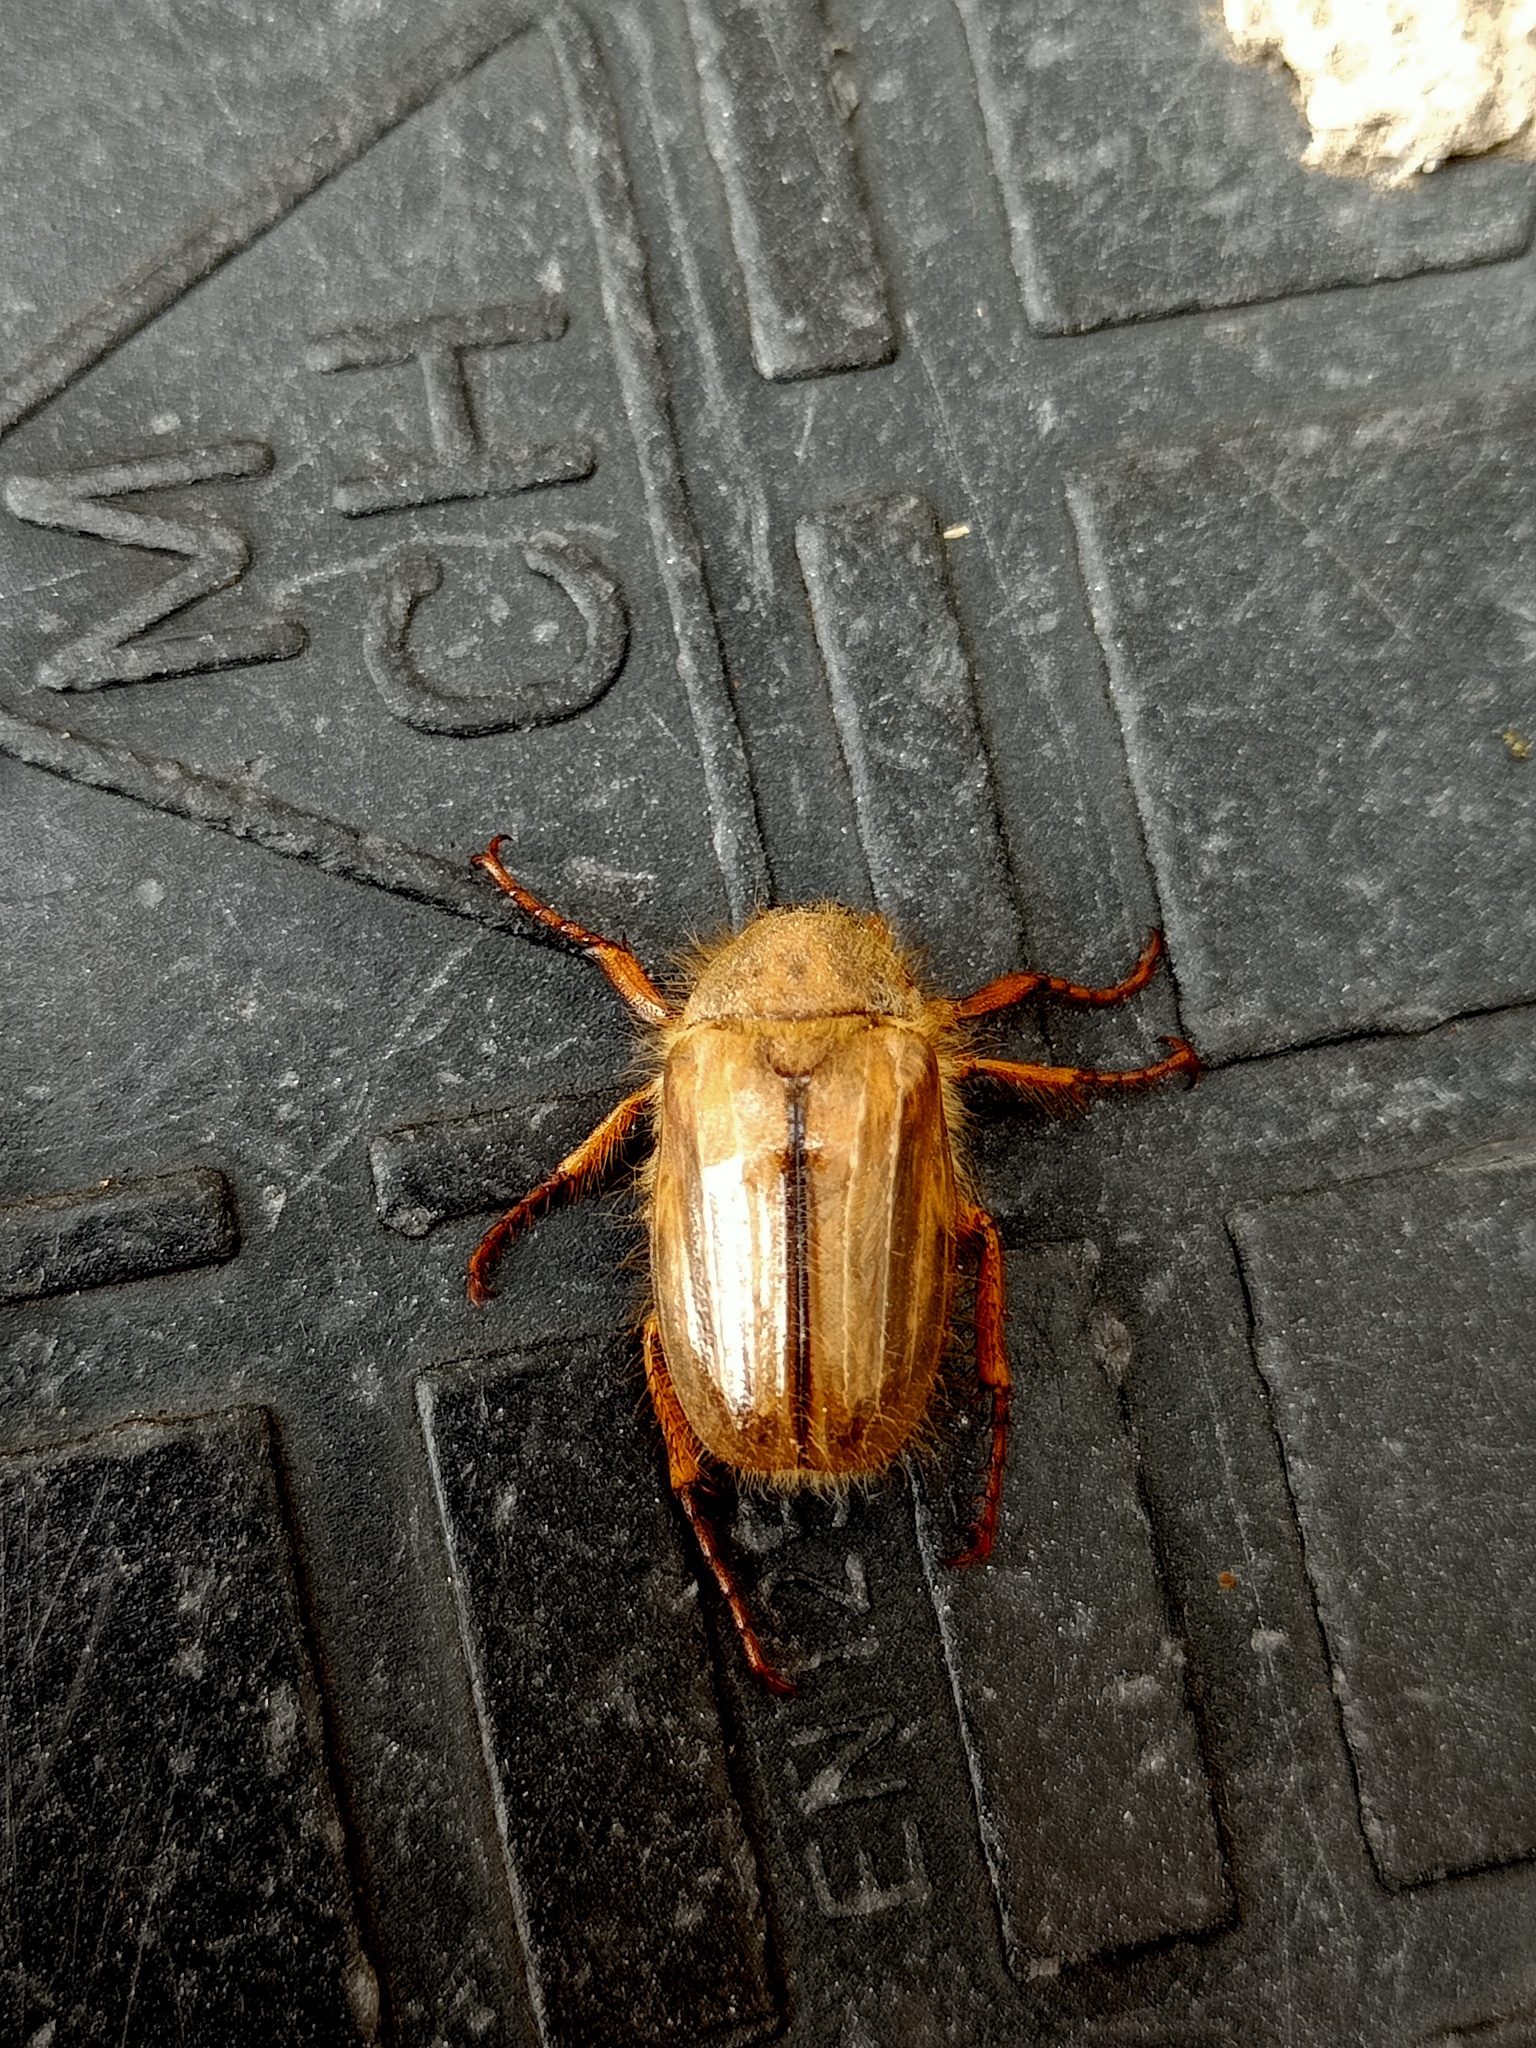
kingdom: Animalia
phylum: Arthropoda
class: Insecta
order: Coleoptera
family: Scarabaeidae
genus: Amphimallon
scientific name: Amphimallon solstitiale
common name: Summer chafer
